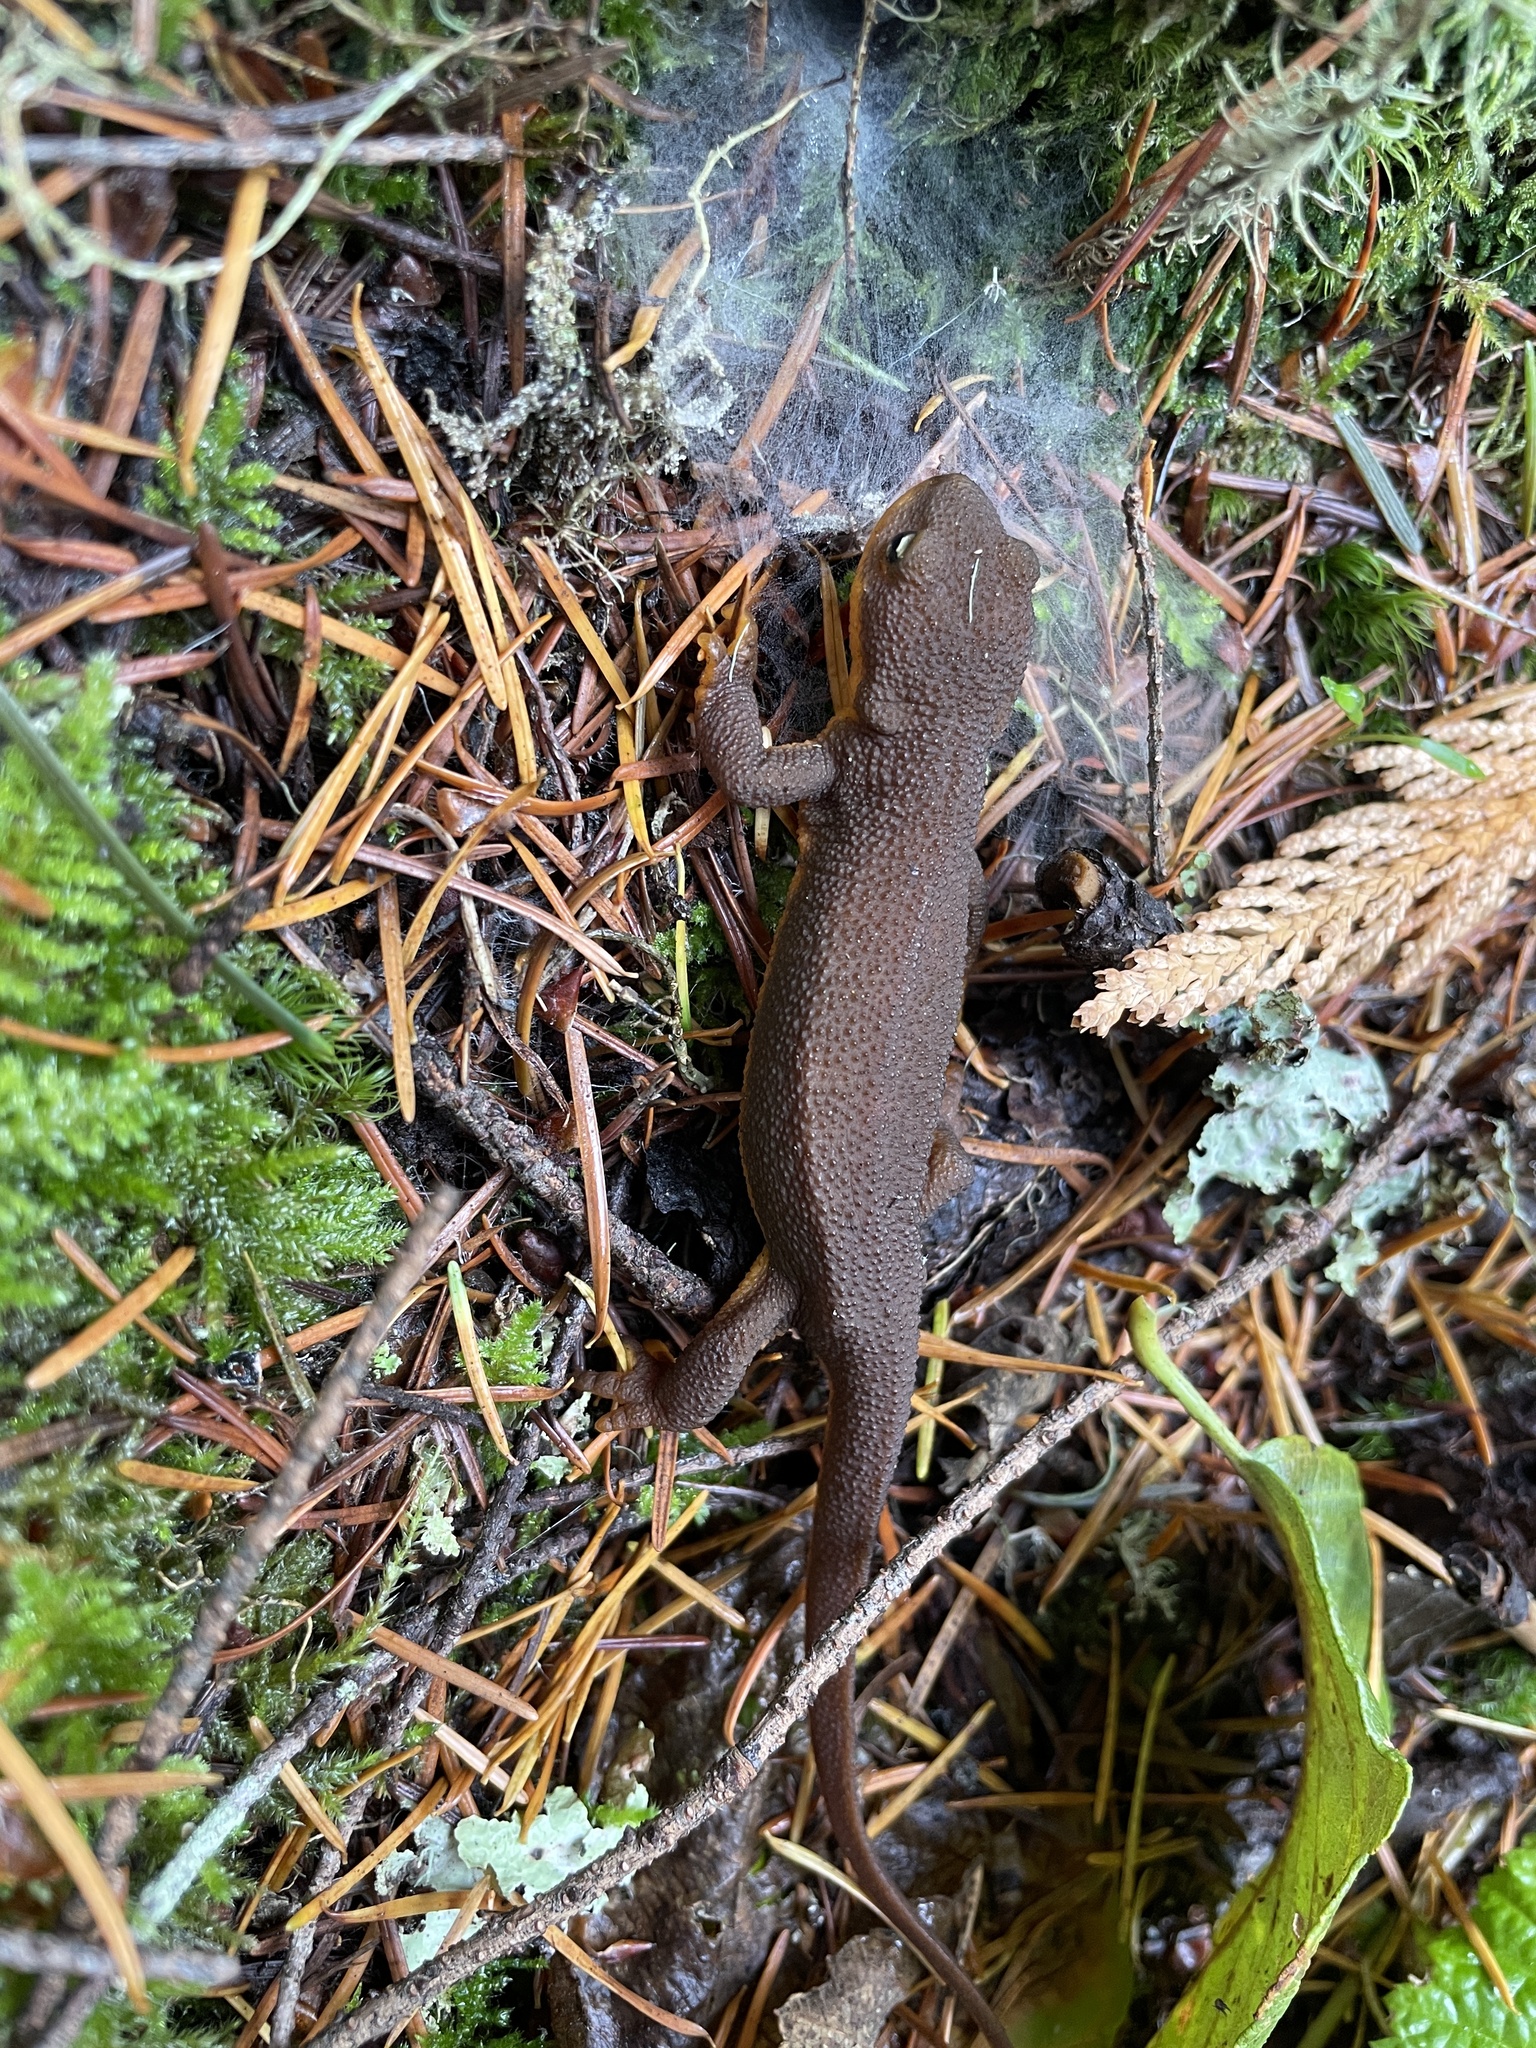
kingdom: Animalia
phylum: Chordata
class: Amphibia
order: Caudata
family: Salamandridae
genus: Taricha
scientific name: Taricha granulosa
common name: Roughskin newt
